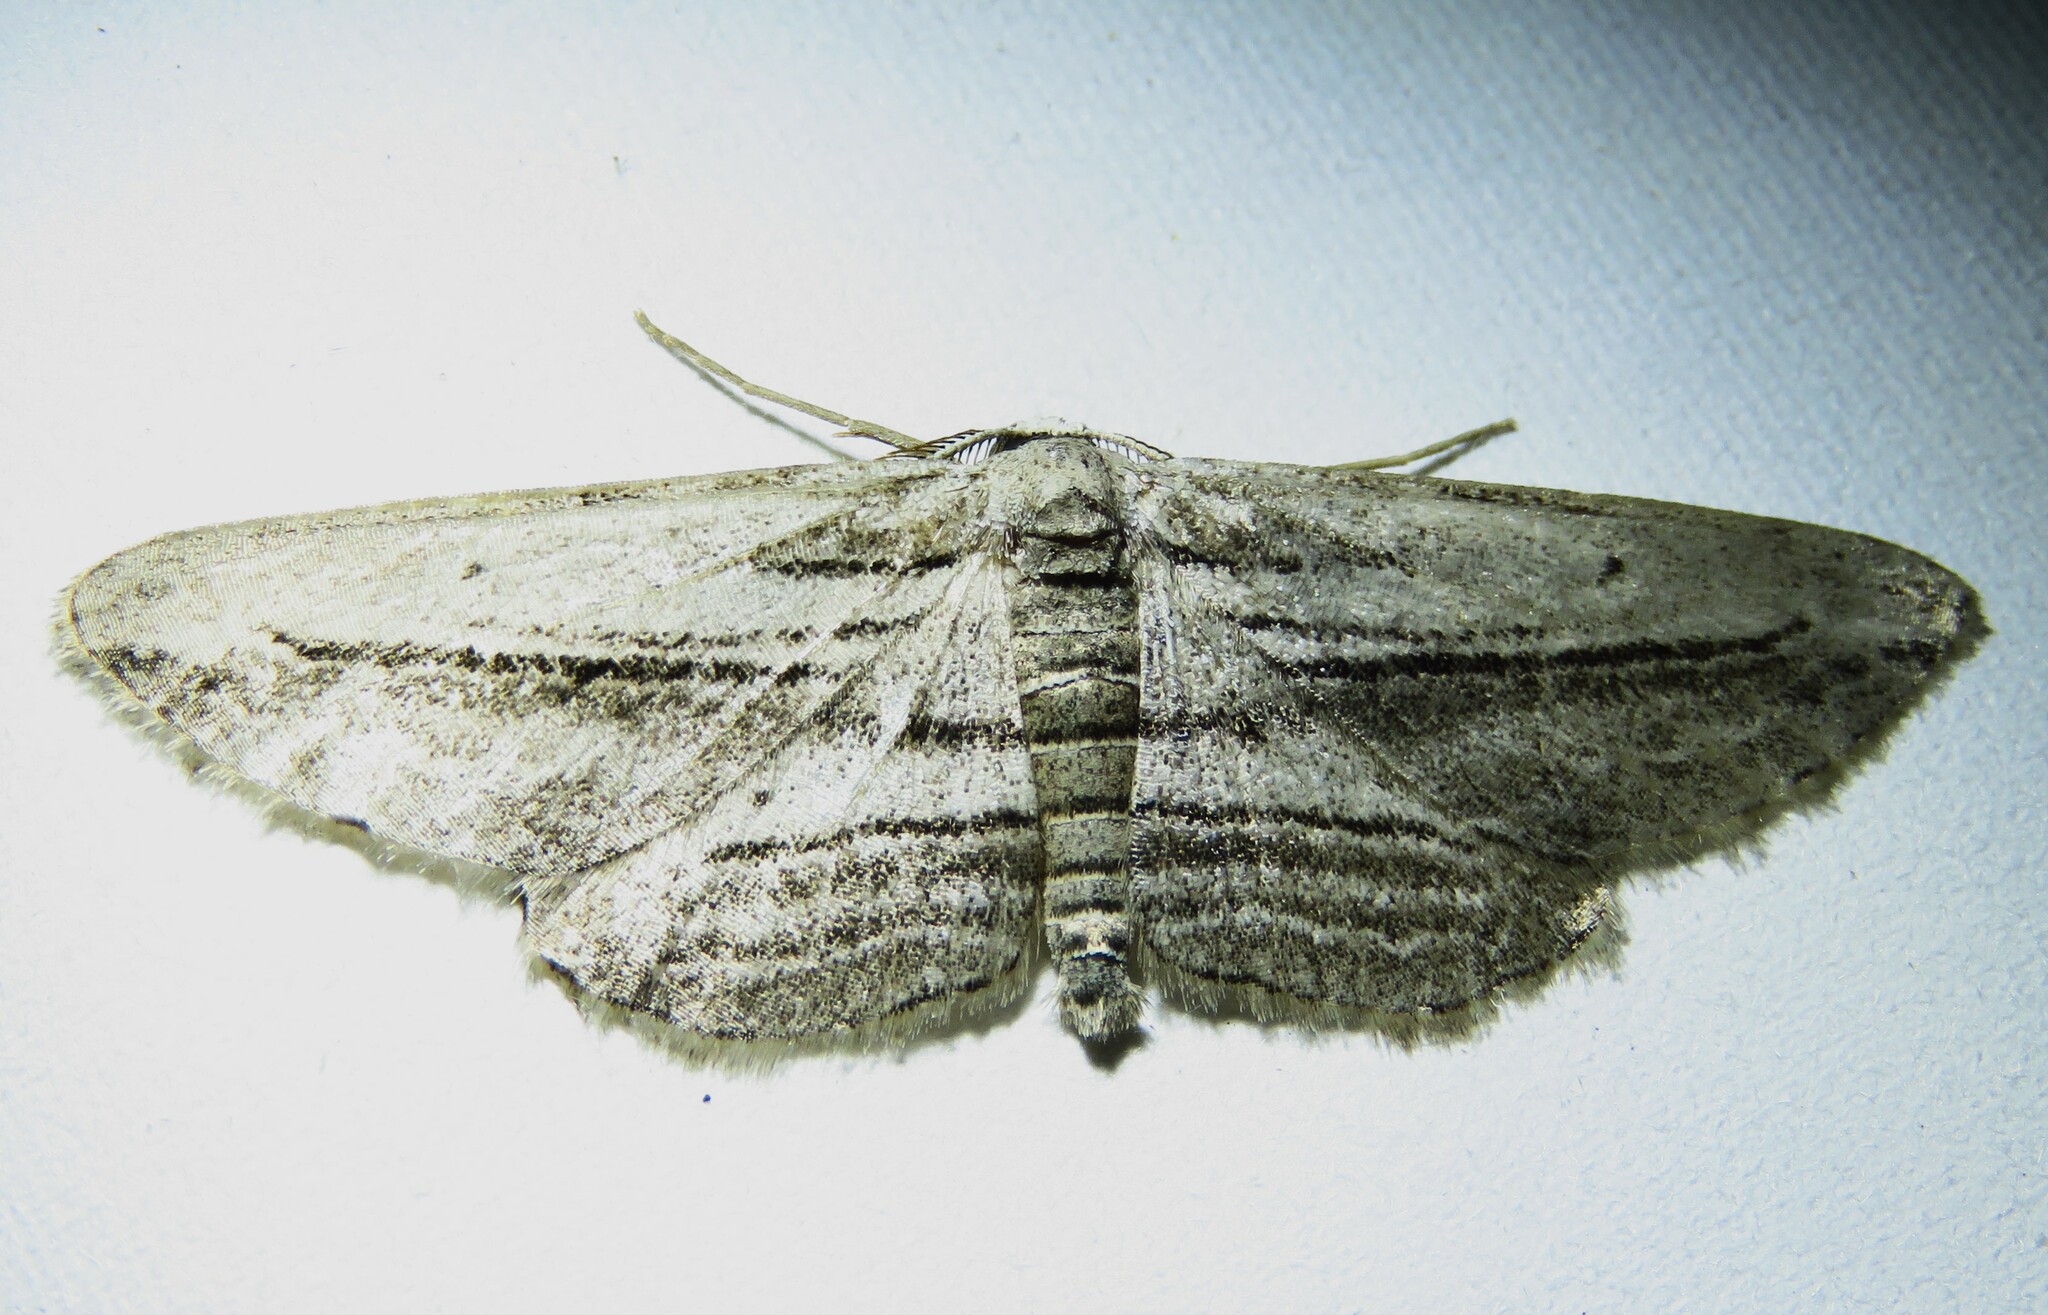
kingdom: Animalia
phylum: Arthropoda
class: Insecta
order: Lepidoptera
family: Geometridae
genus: Glena
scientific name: Glena quinquelinearia
